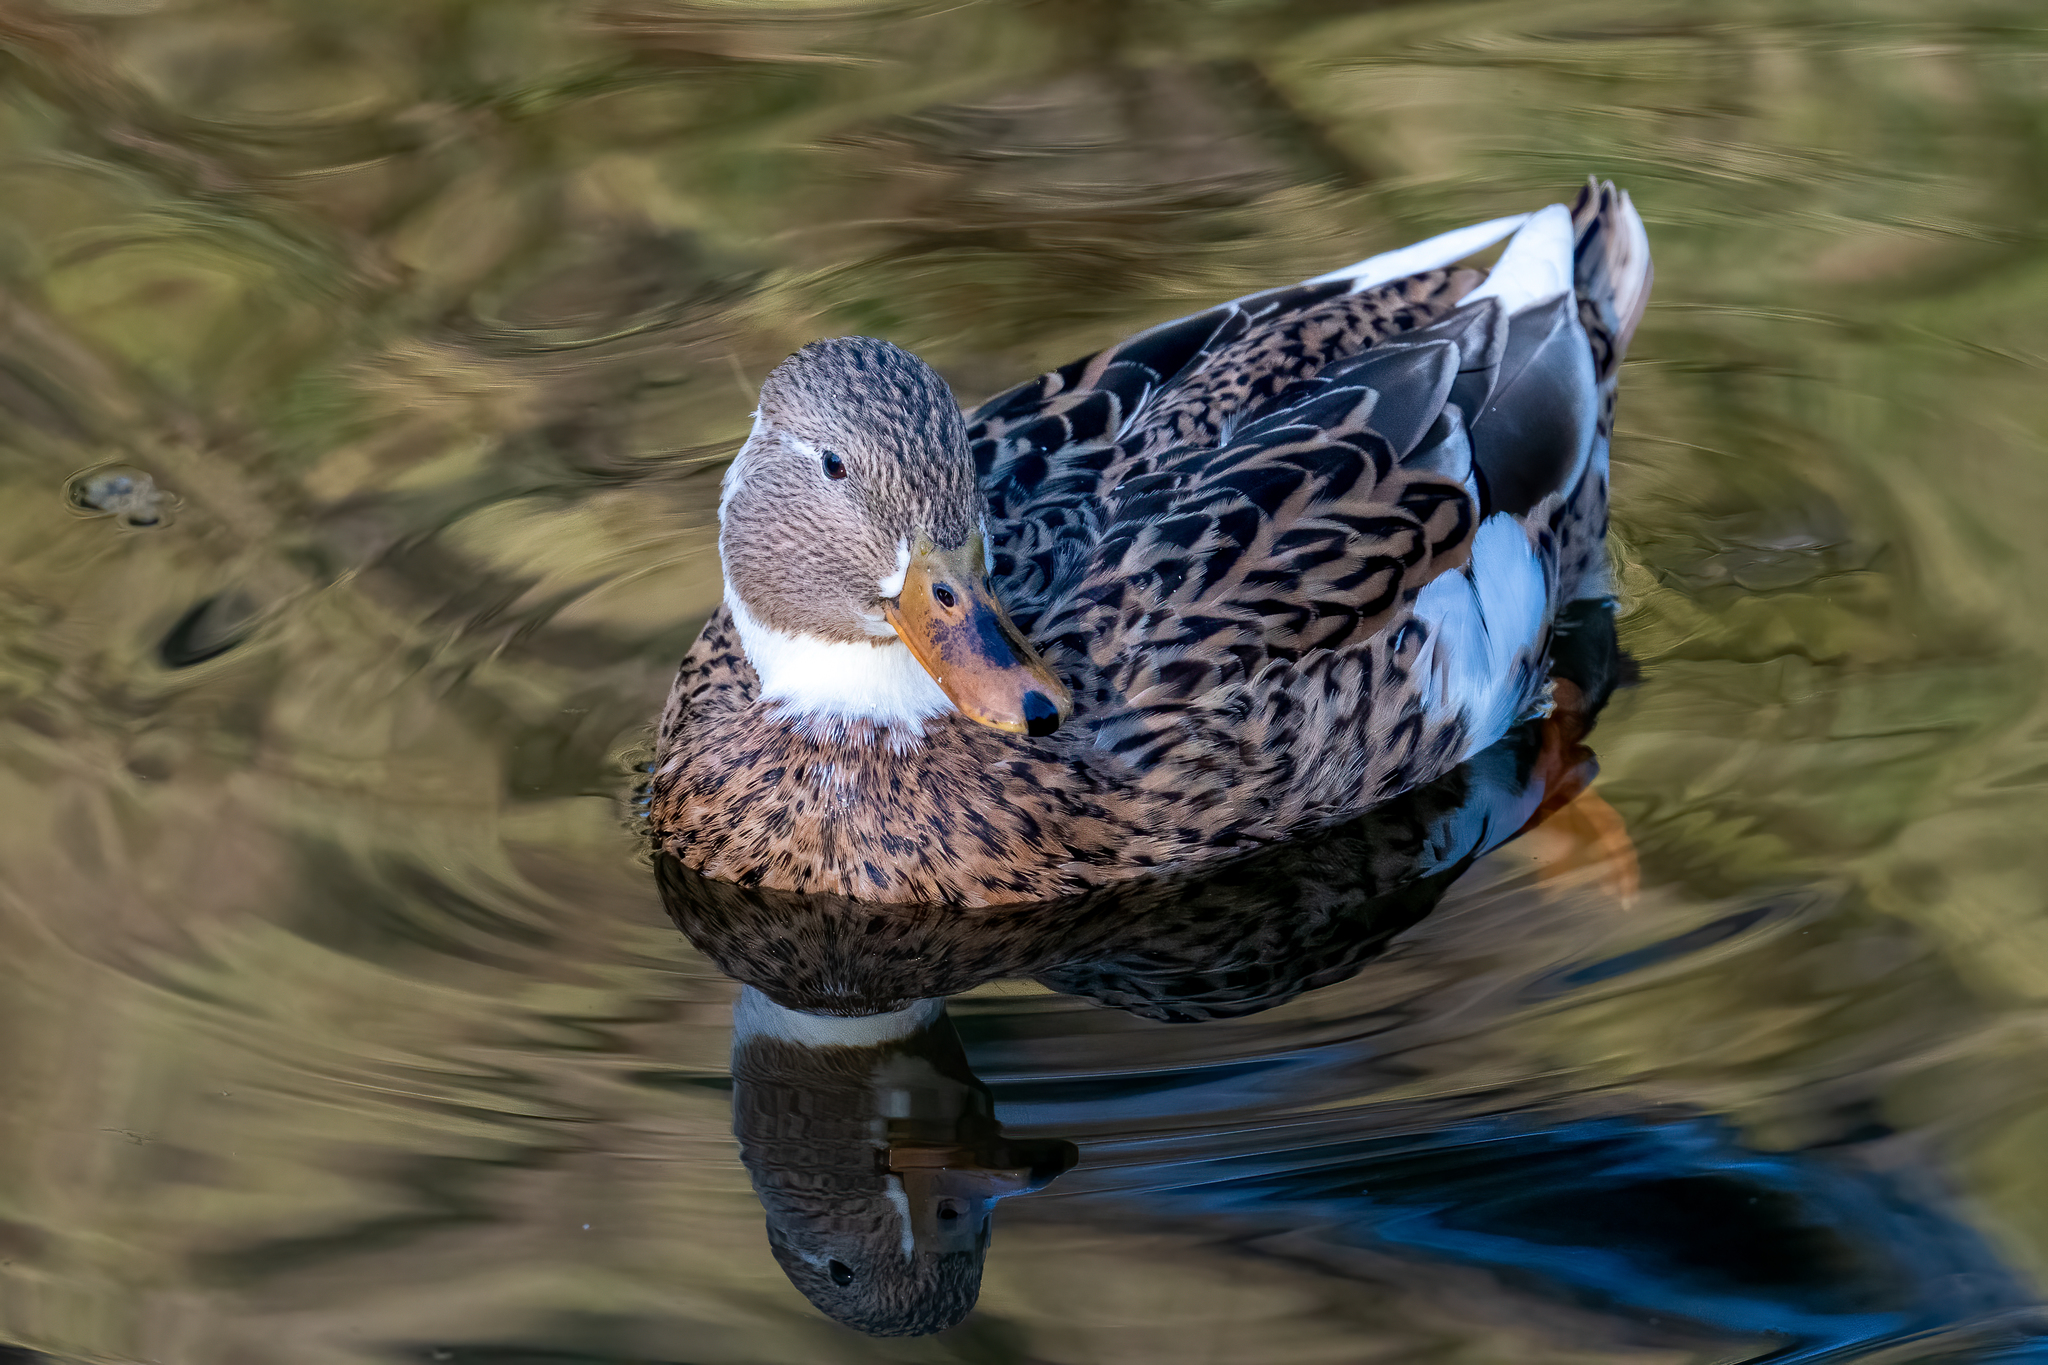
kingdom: Animalia
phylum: Chordata
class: Aves
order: Anseriformes
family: Anatidae
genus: Anas
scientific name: Anas platyrhynchos
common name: Mallard
